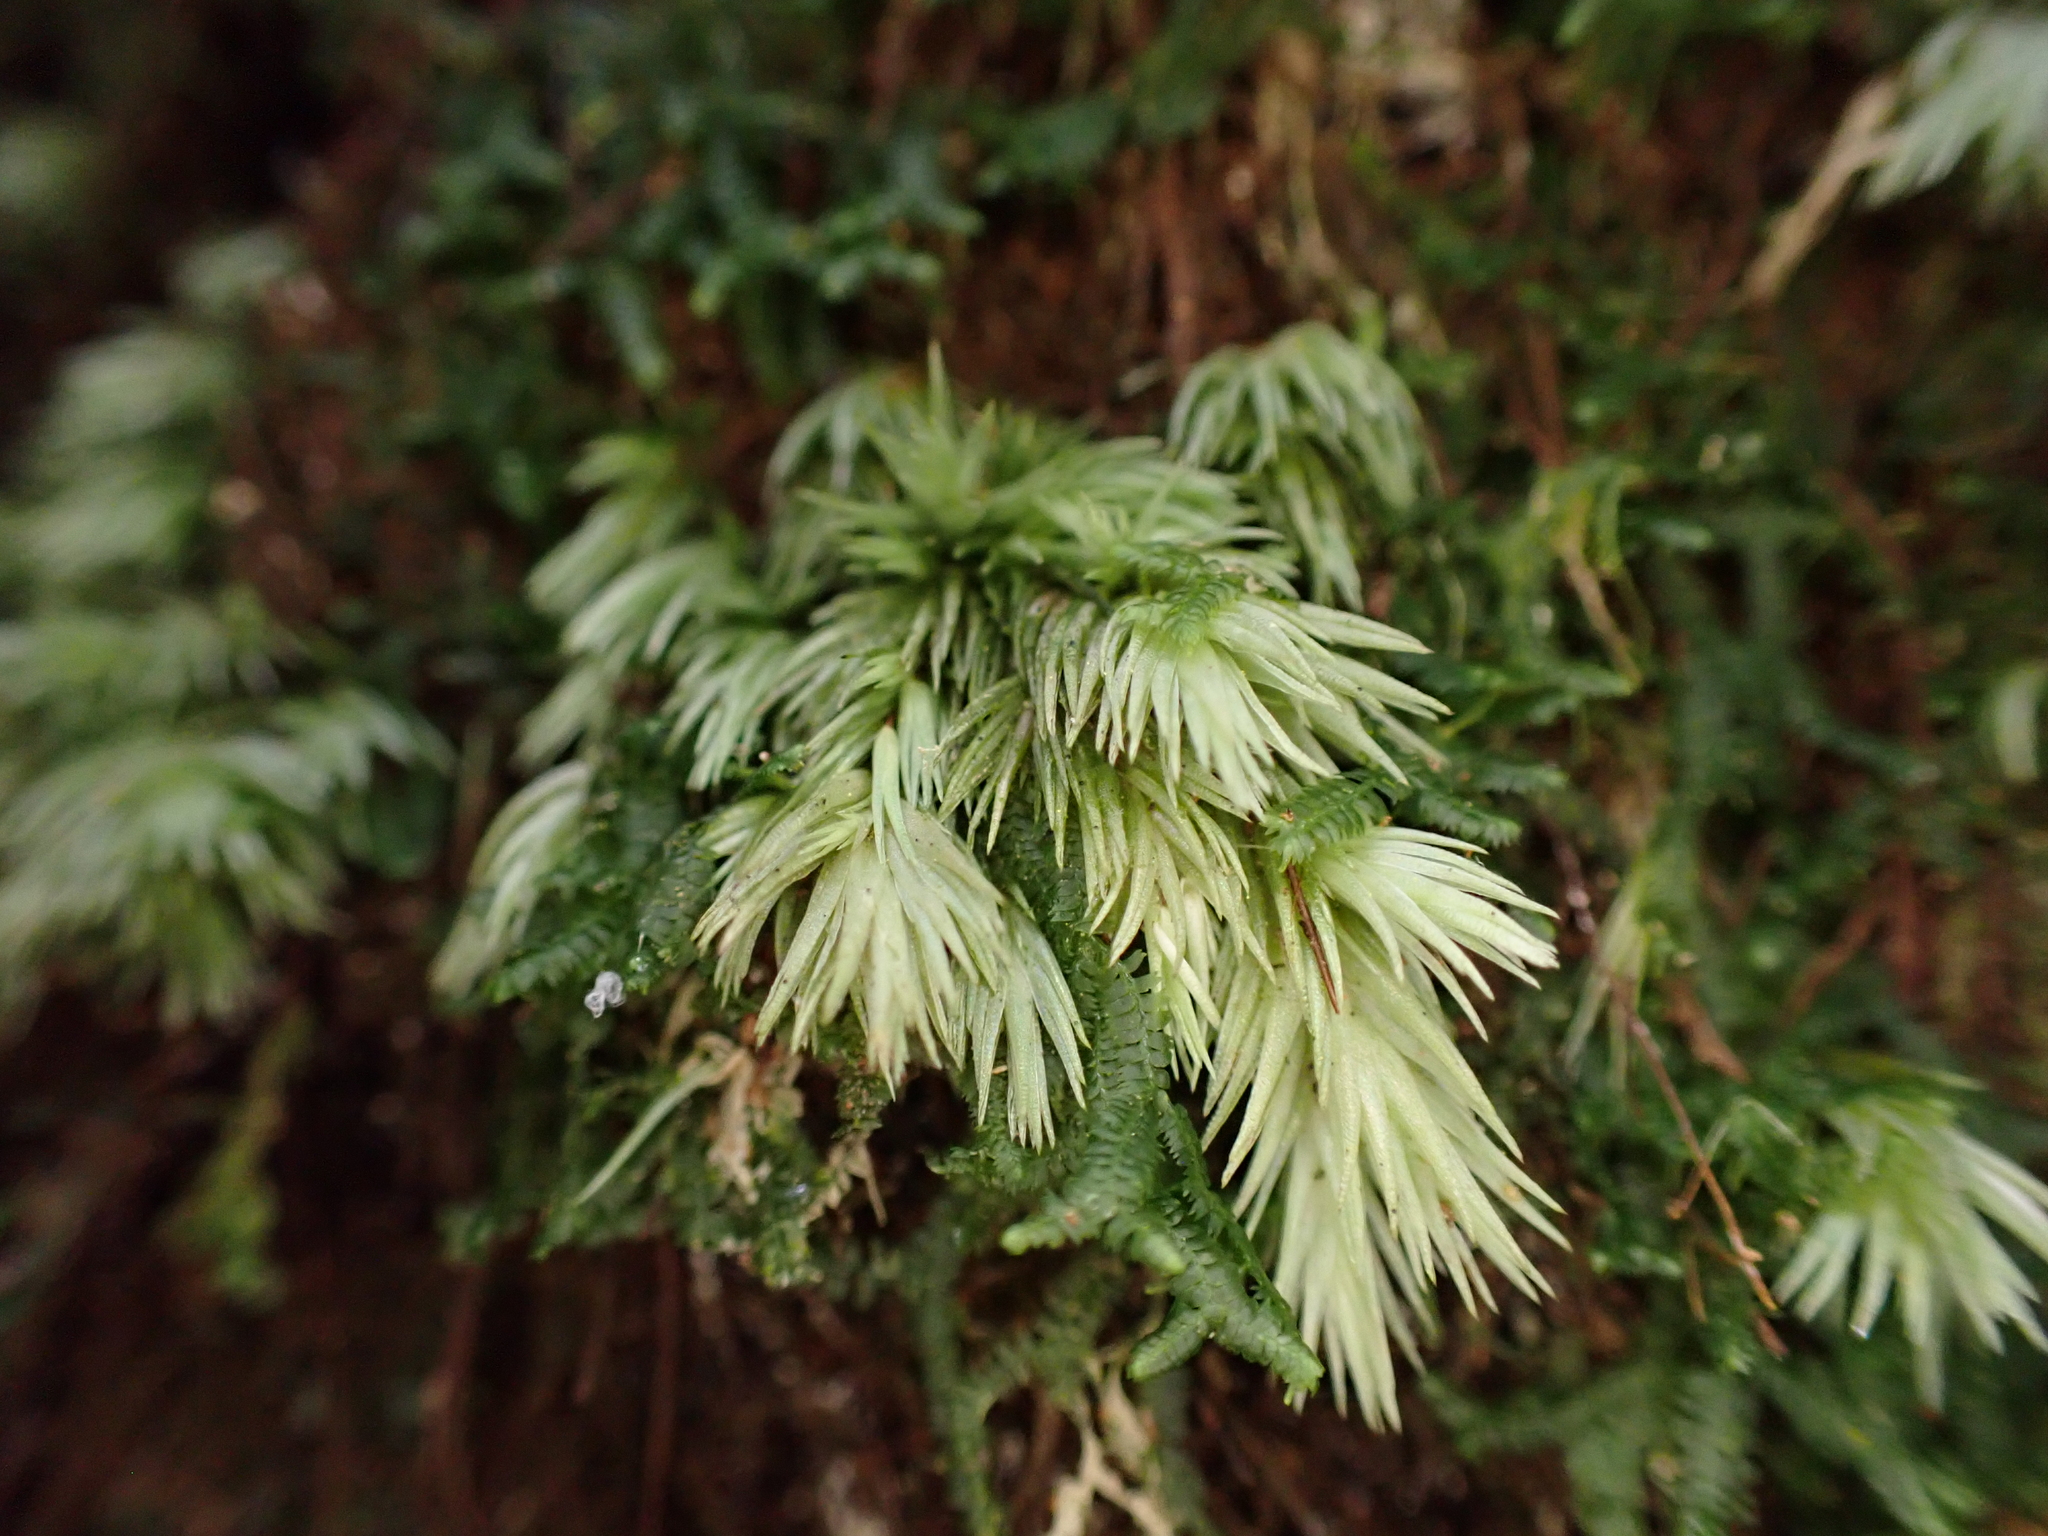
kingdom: Plantae
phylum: Bryophyta
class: Bryopsida
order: Dicranales
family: Leucobryaceae
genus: Leucobryum
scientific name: Leucobryum javense
